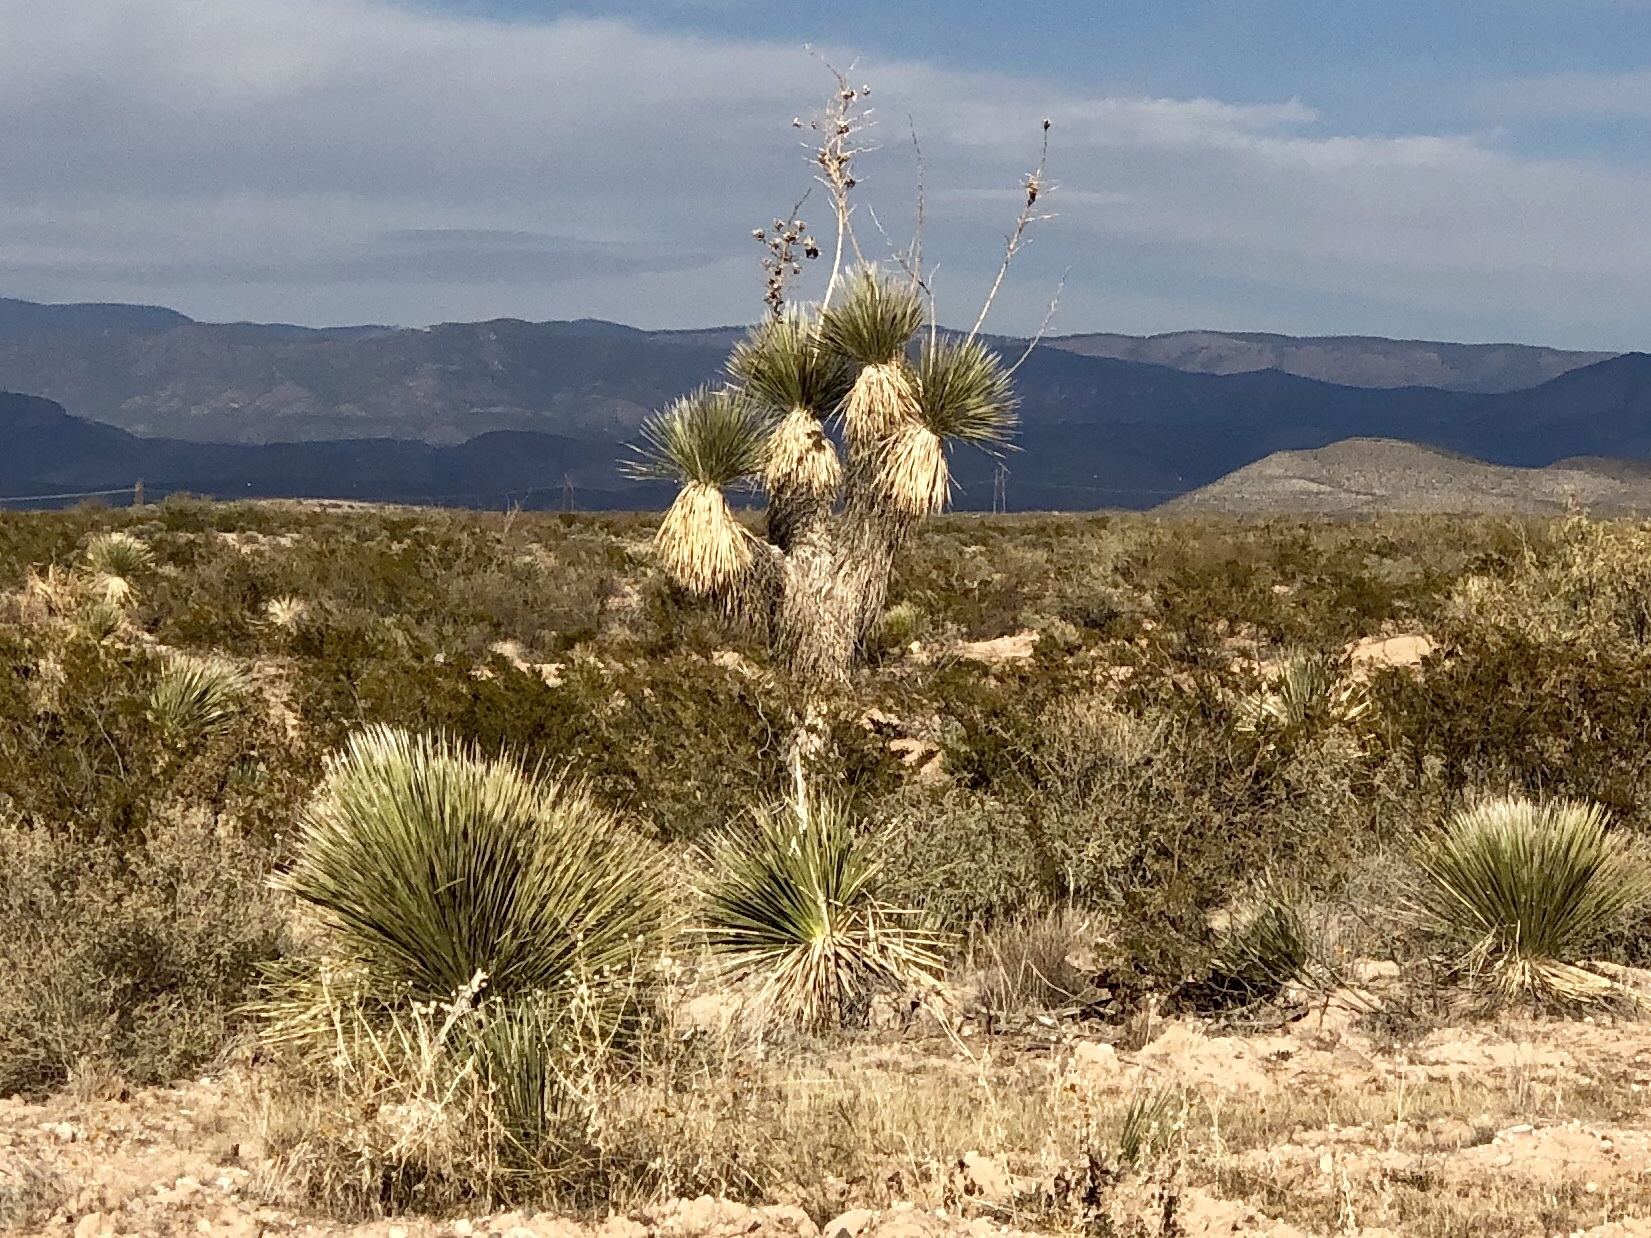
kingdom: Plantae
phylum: Tracheophyta
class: Liliopsida
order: Asparagales
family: Asparagaceae
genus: Yucca
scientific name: Yucca elata
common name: Palmella
